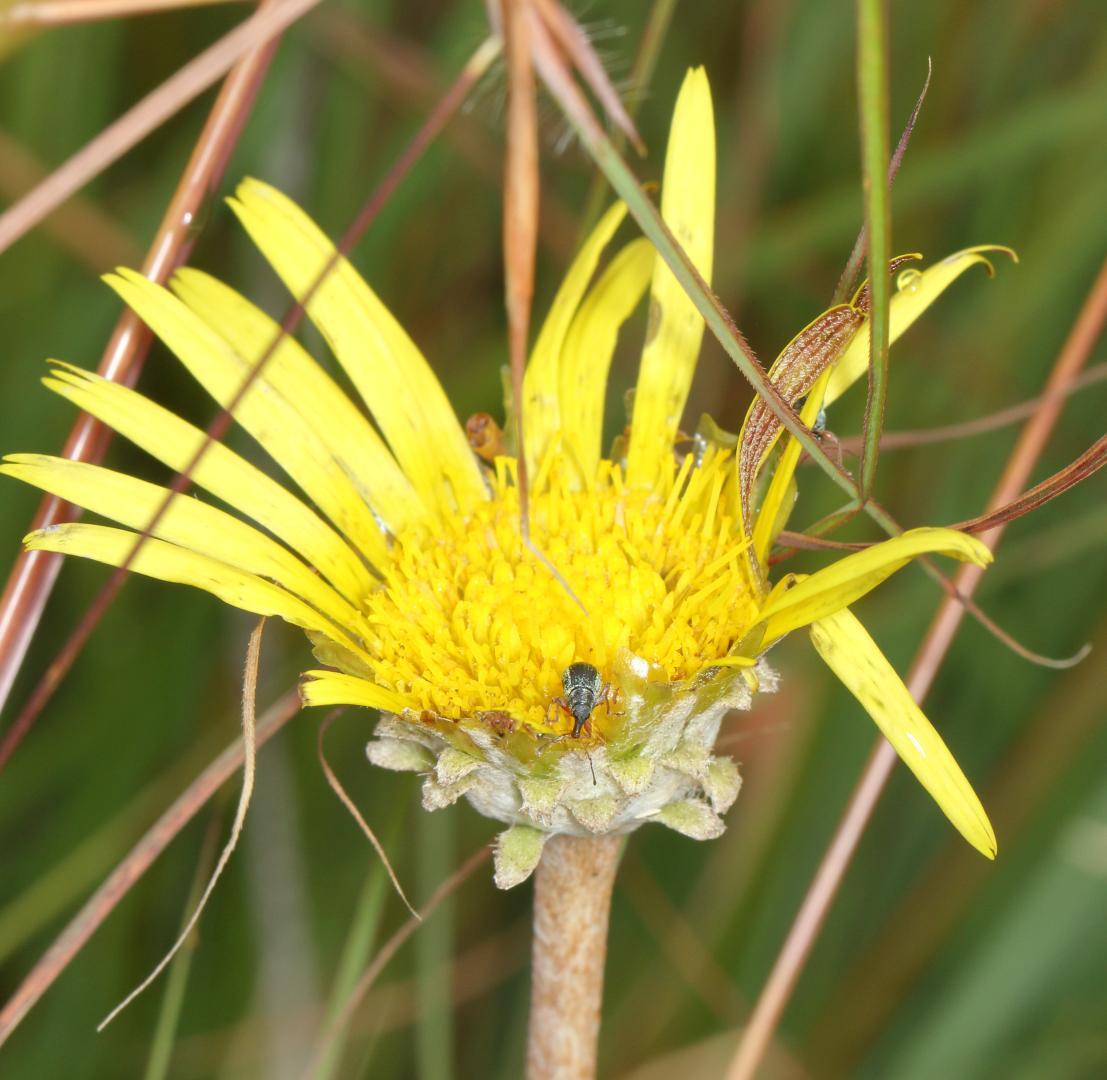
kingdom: Plantae
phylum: Tracheophyta
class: Magnoliopsida
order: Asterales
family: Asteraceae
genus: Haplocarpha
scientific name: Haplocarpha scaposa
